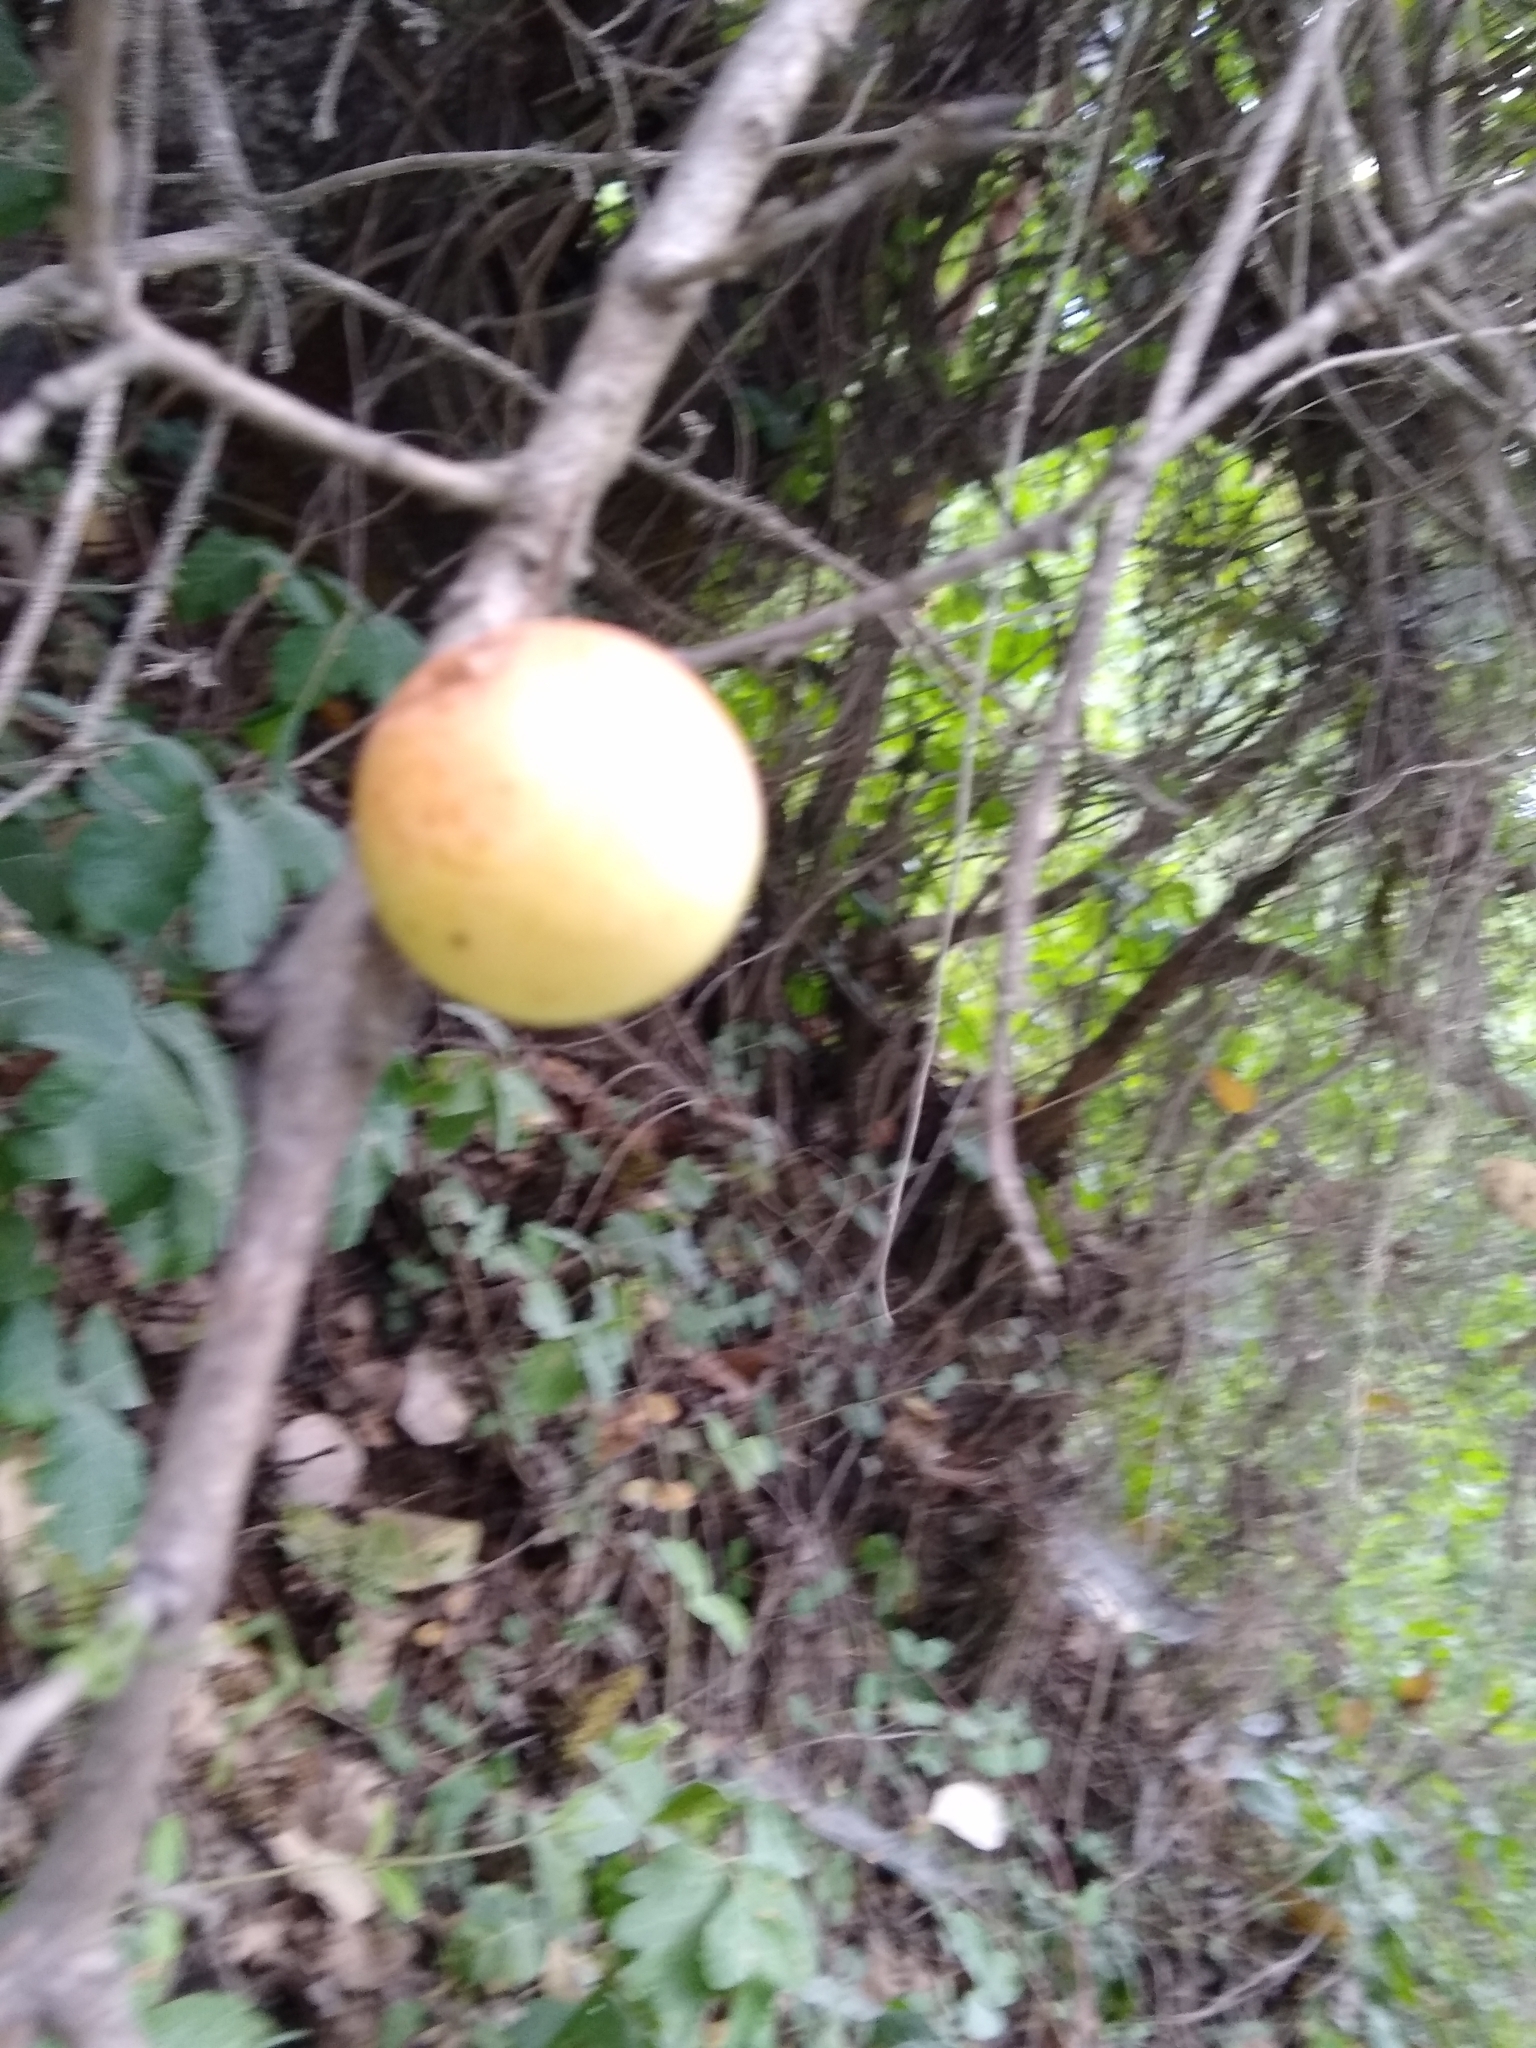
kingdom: Animalia
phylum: Arthropoda
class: Insecta
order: Hymenoptera
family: Cynipidae
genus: Andricus
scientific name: Andricus quercuscalifornicus
